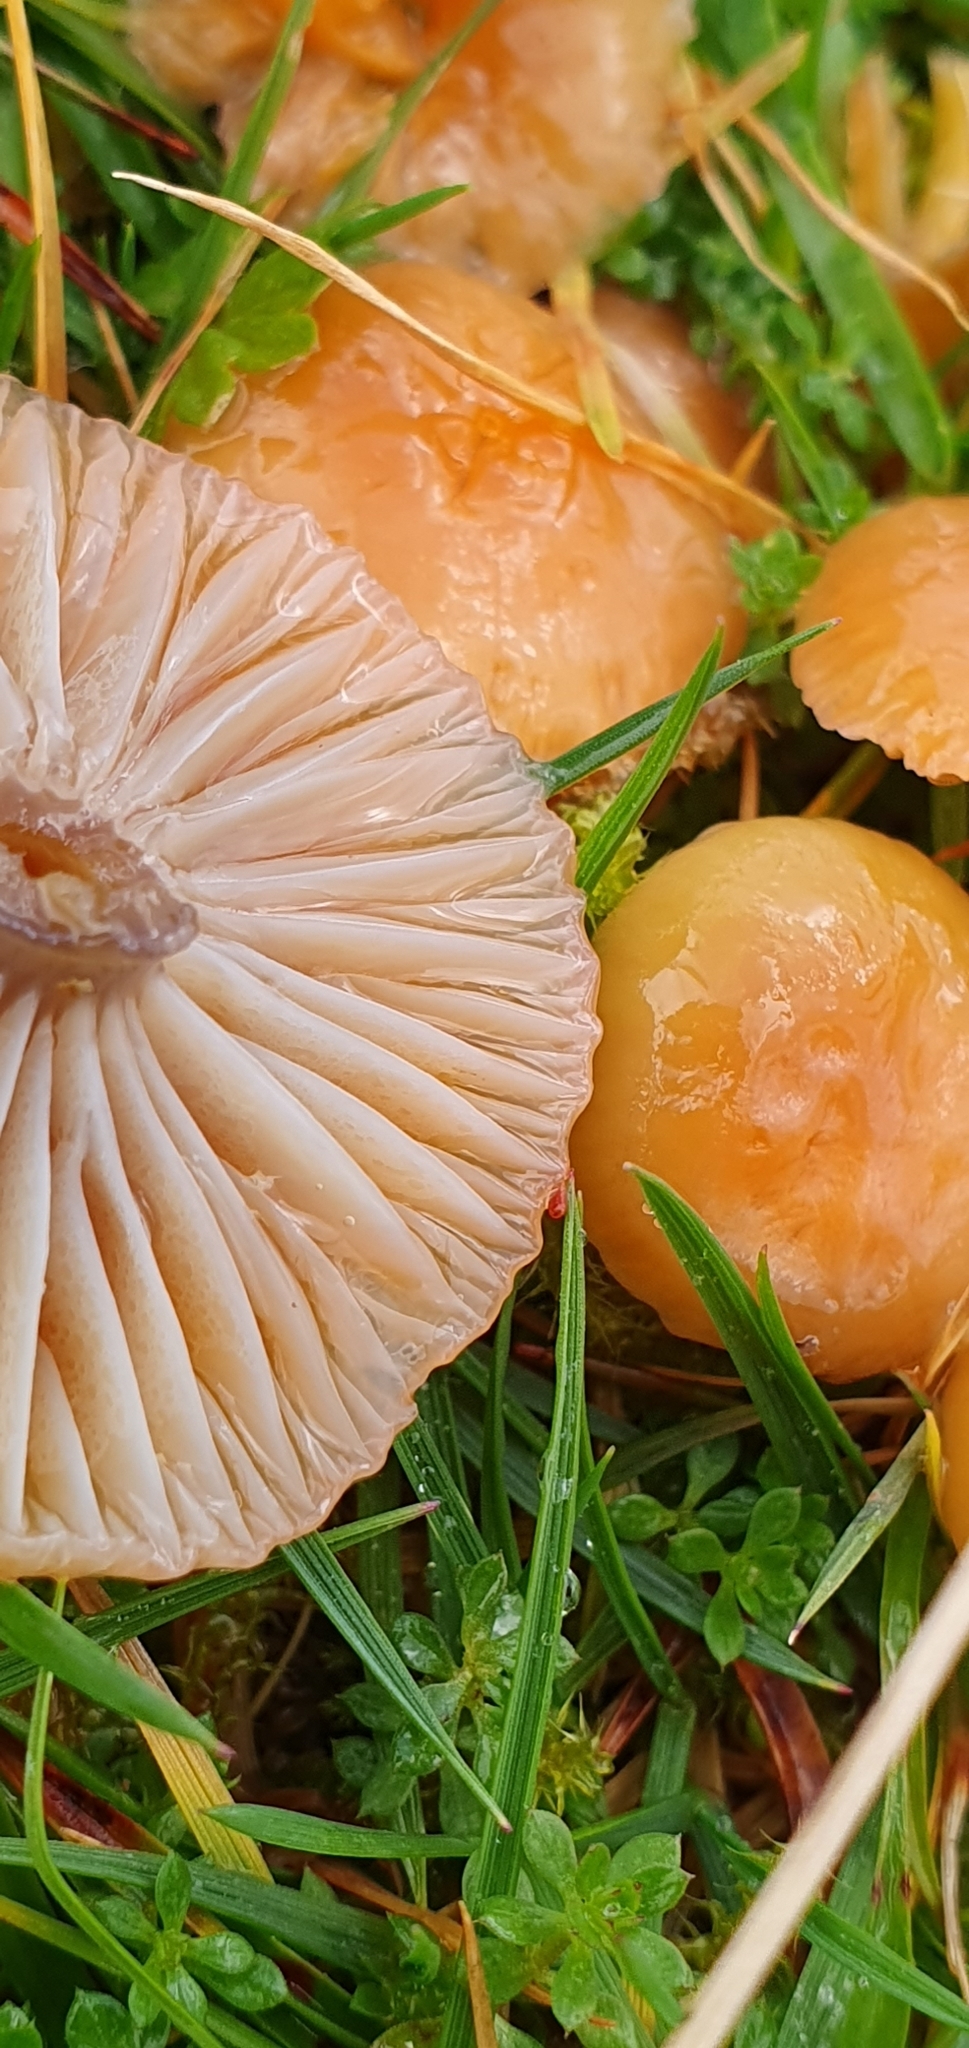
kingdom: Fungi
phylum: Basidiomycota
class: Agaricomycetes
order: Agaricales
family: Hygrophoraceae
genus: Gliophorus
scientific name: Gliophorus laetus
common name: Heath waxcap
